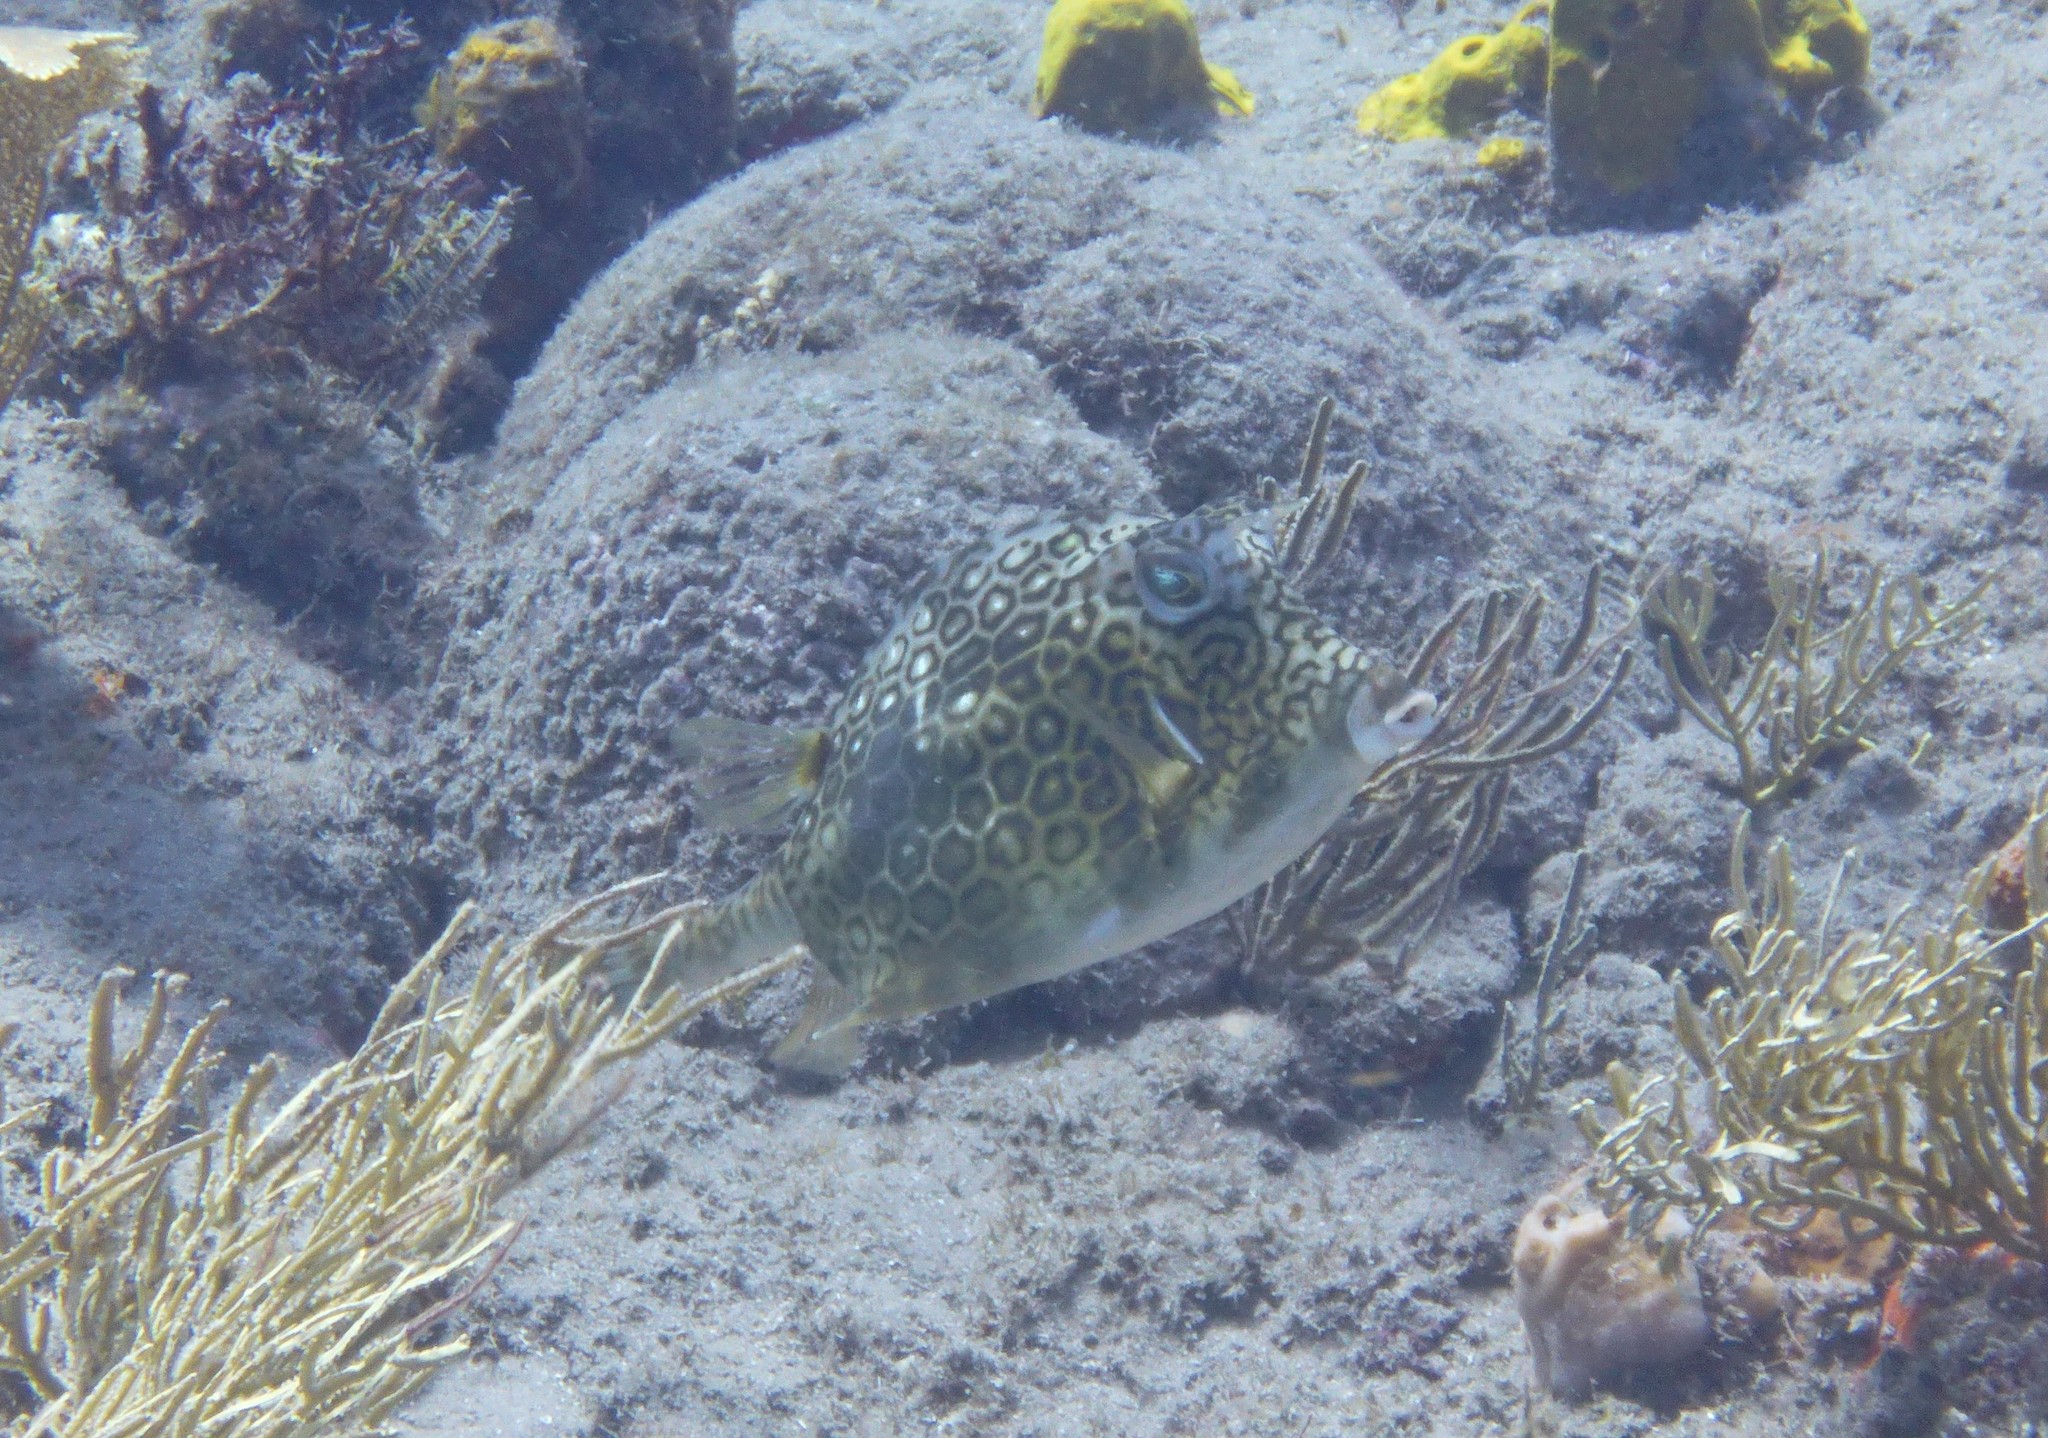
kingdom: Animalia
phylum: Chordata
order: Tetraodontiformes
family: Ostraciidae
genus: Acanthostracion
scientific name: Acanthostracion polygonius
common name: Honeycomb cowfish
